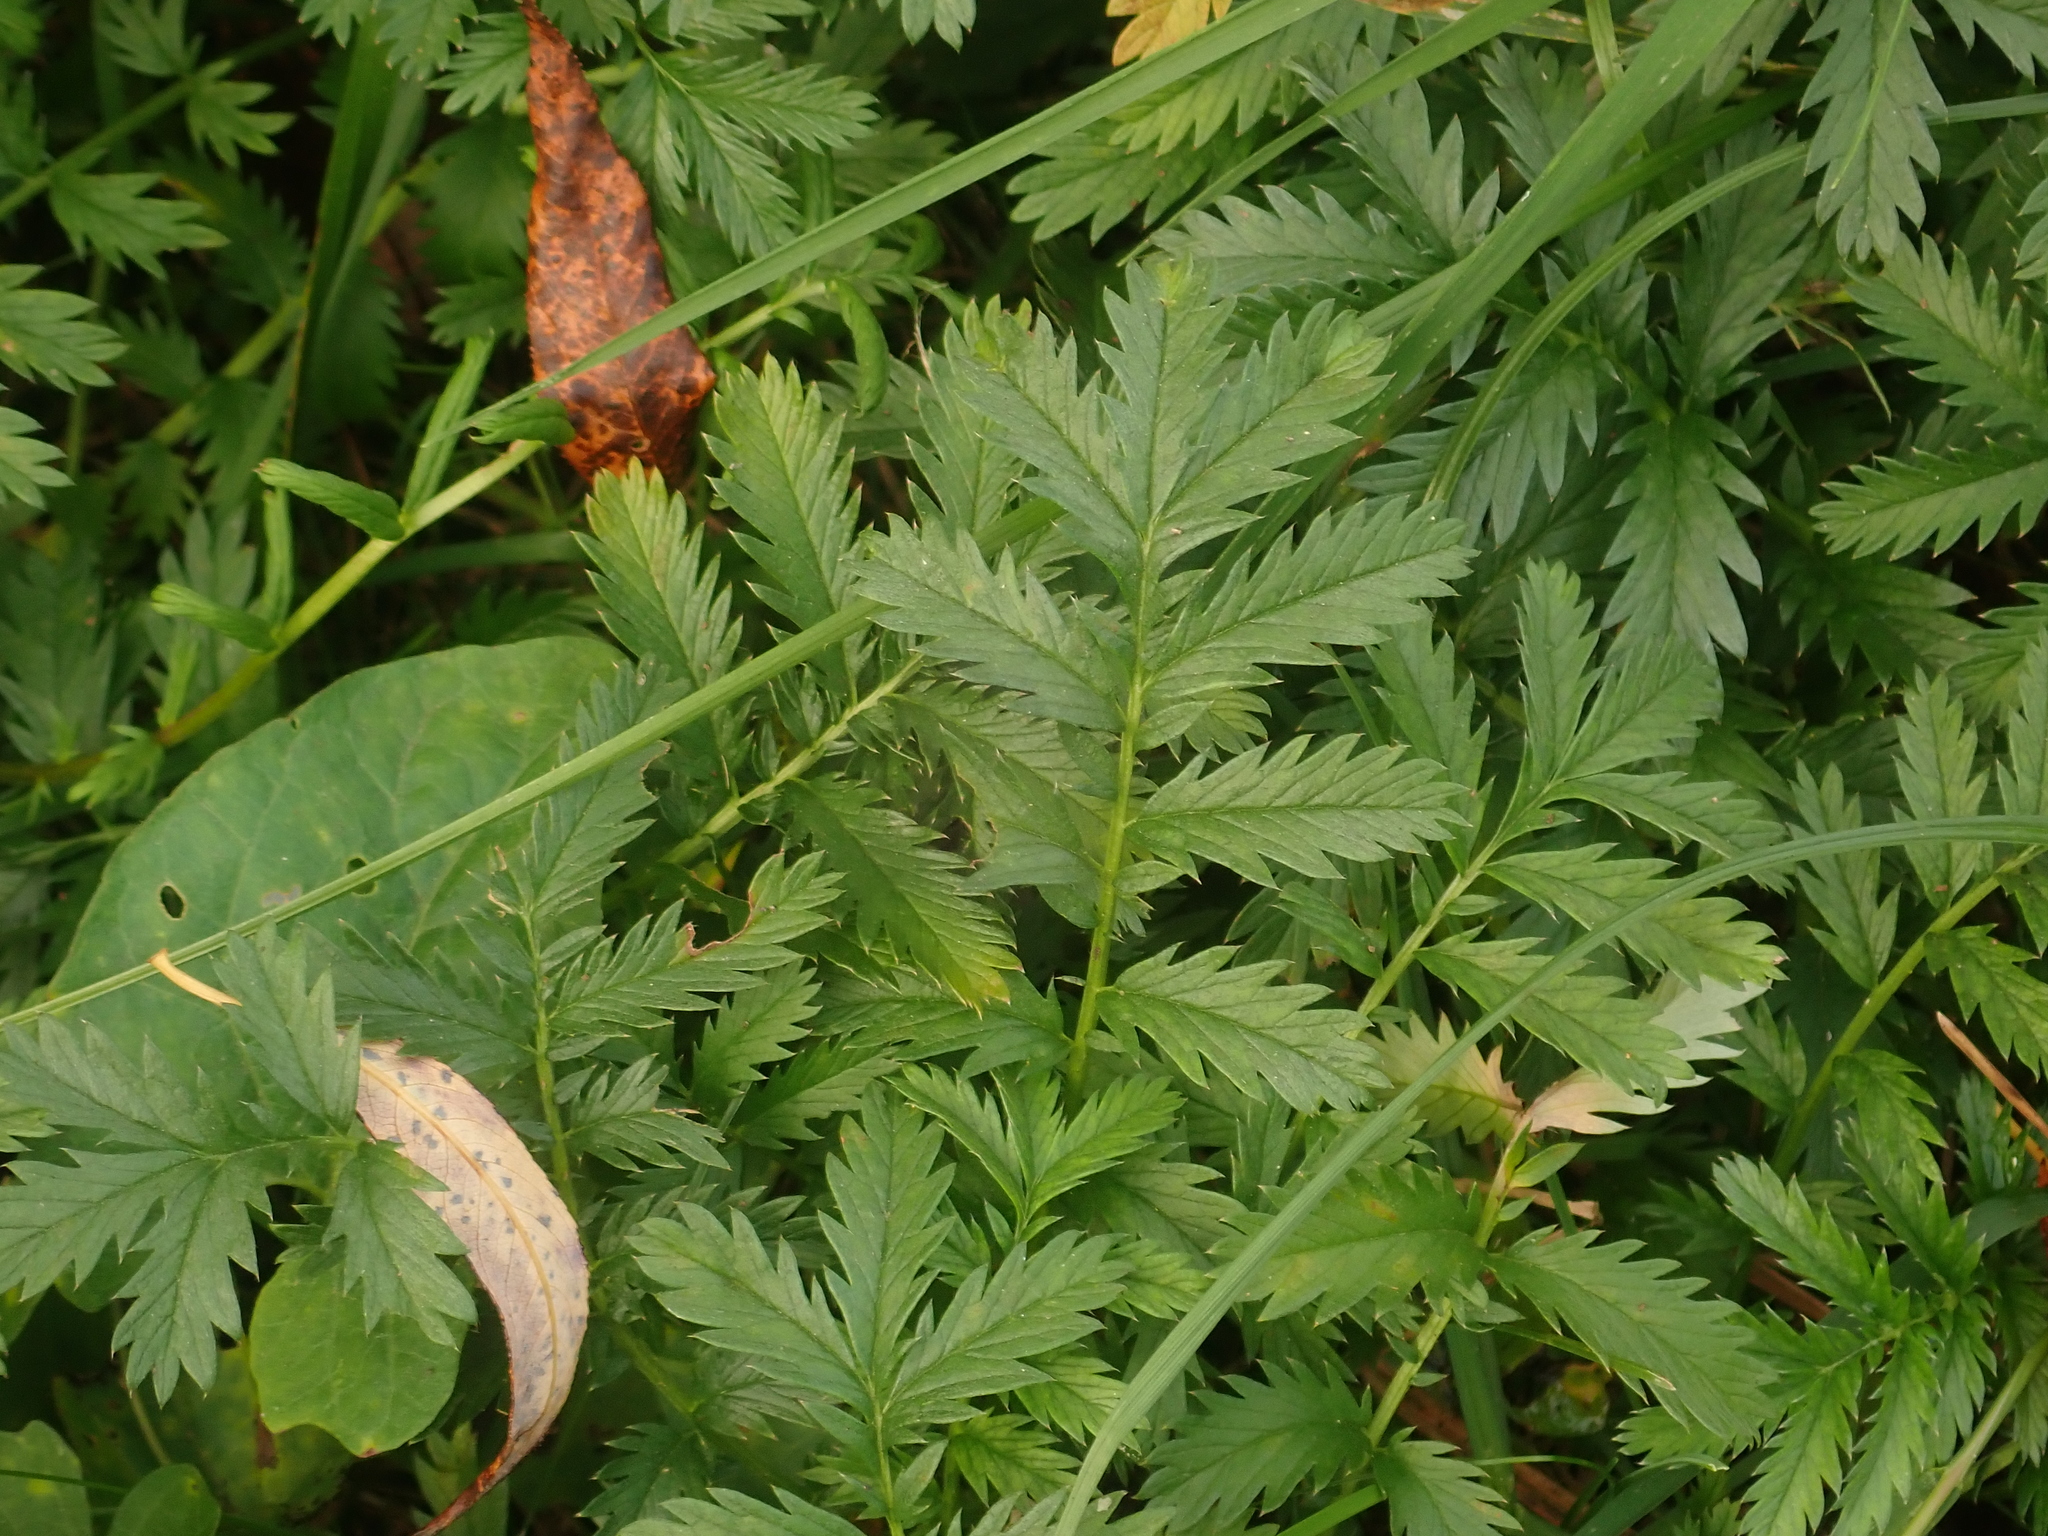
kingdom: Plantae
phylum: Tracheophyta
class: Magnoliopsida
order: Rosales
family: Rosaceae
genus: Argentina
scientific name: Argentina anserina
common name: Common silverweed
